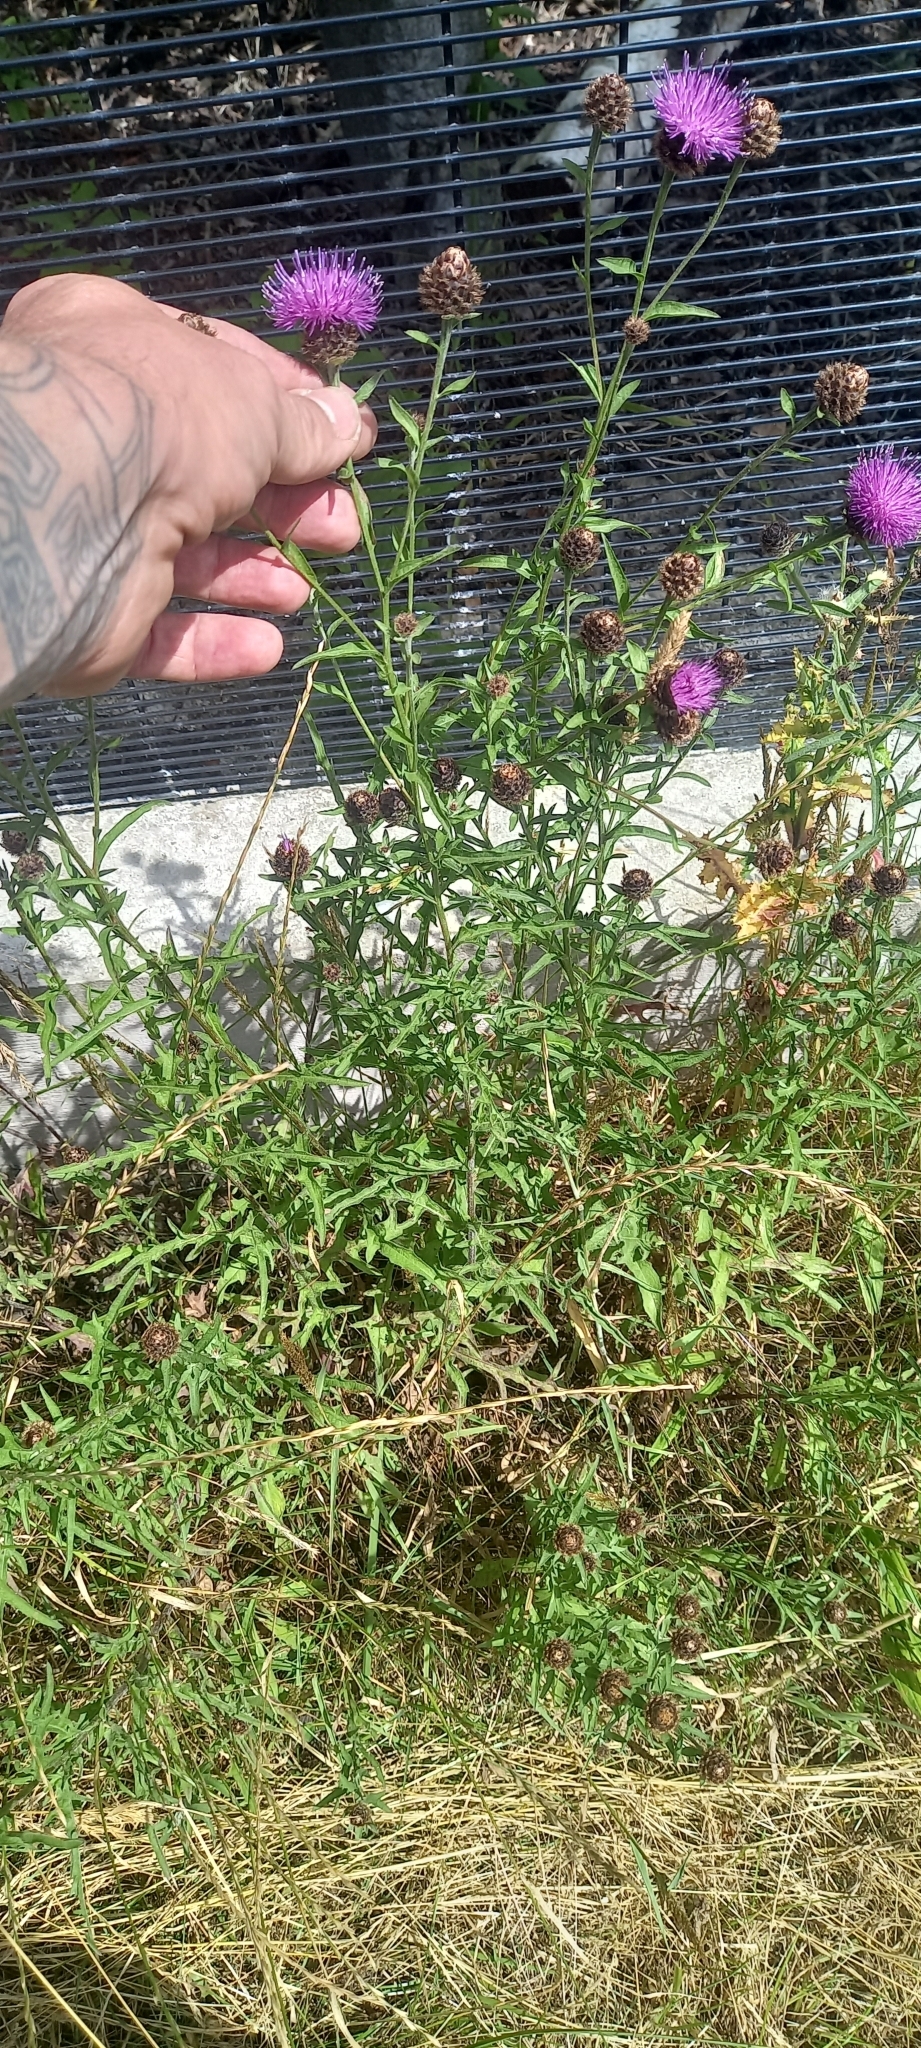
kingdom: Plantae
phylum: Tracheophyta
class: Magnoliopsida
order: Asterales
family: Asteraceae
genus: Centaurea
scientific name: Centaurea nigra
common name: Lesser knapweed
